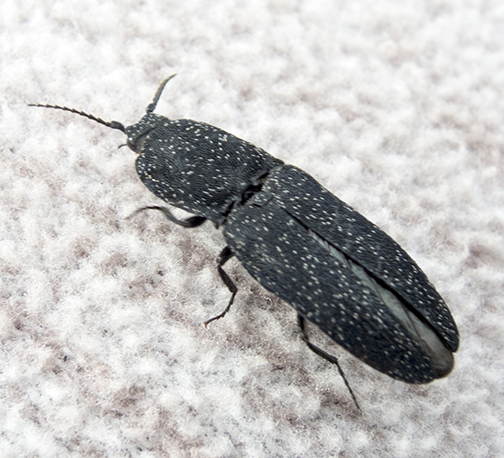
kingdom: Animalia
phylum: Arthropoda
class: Insecta
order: Coleoptera
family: Elateridae
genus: Lacon
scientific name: Lacon punctatus
